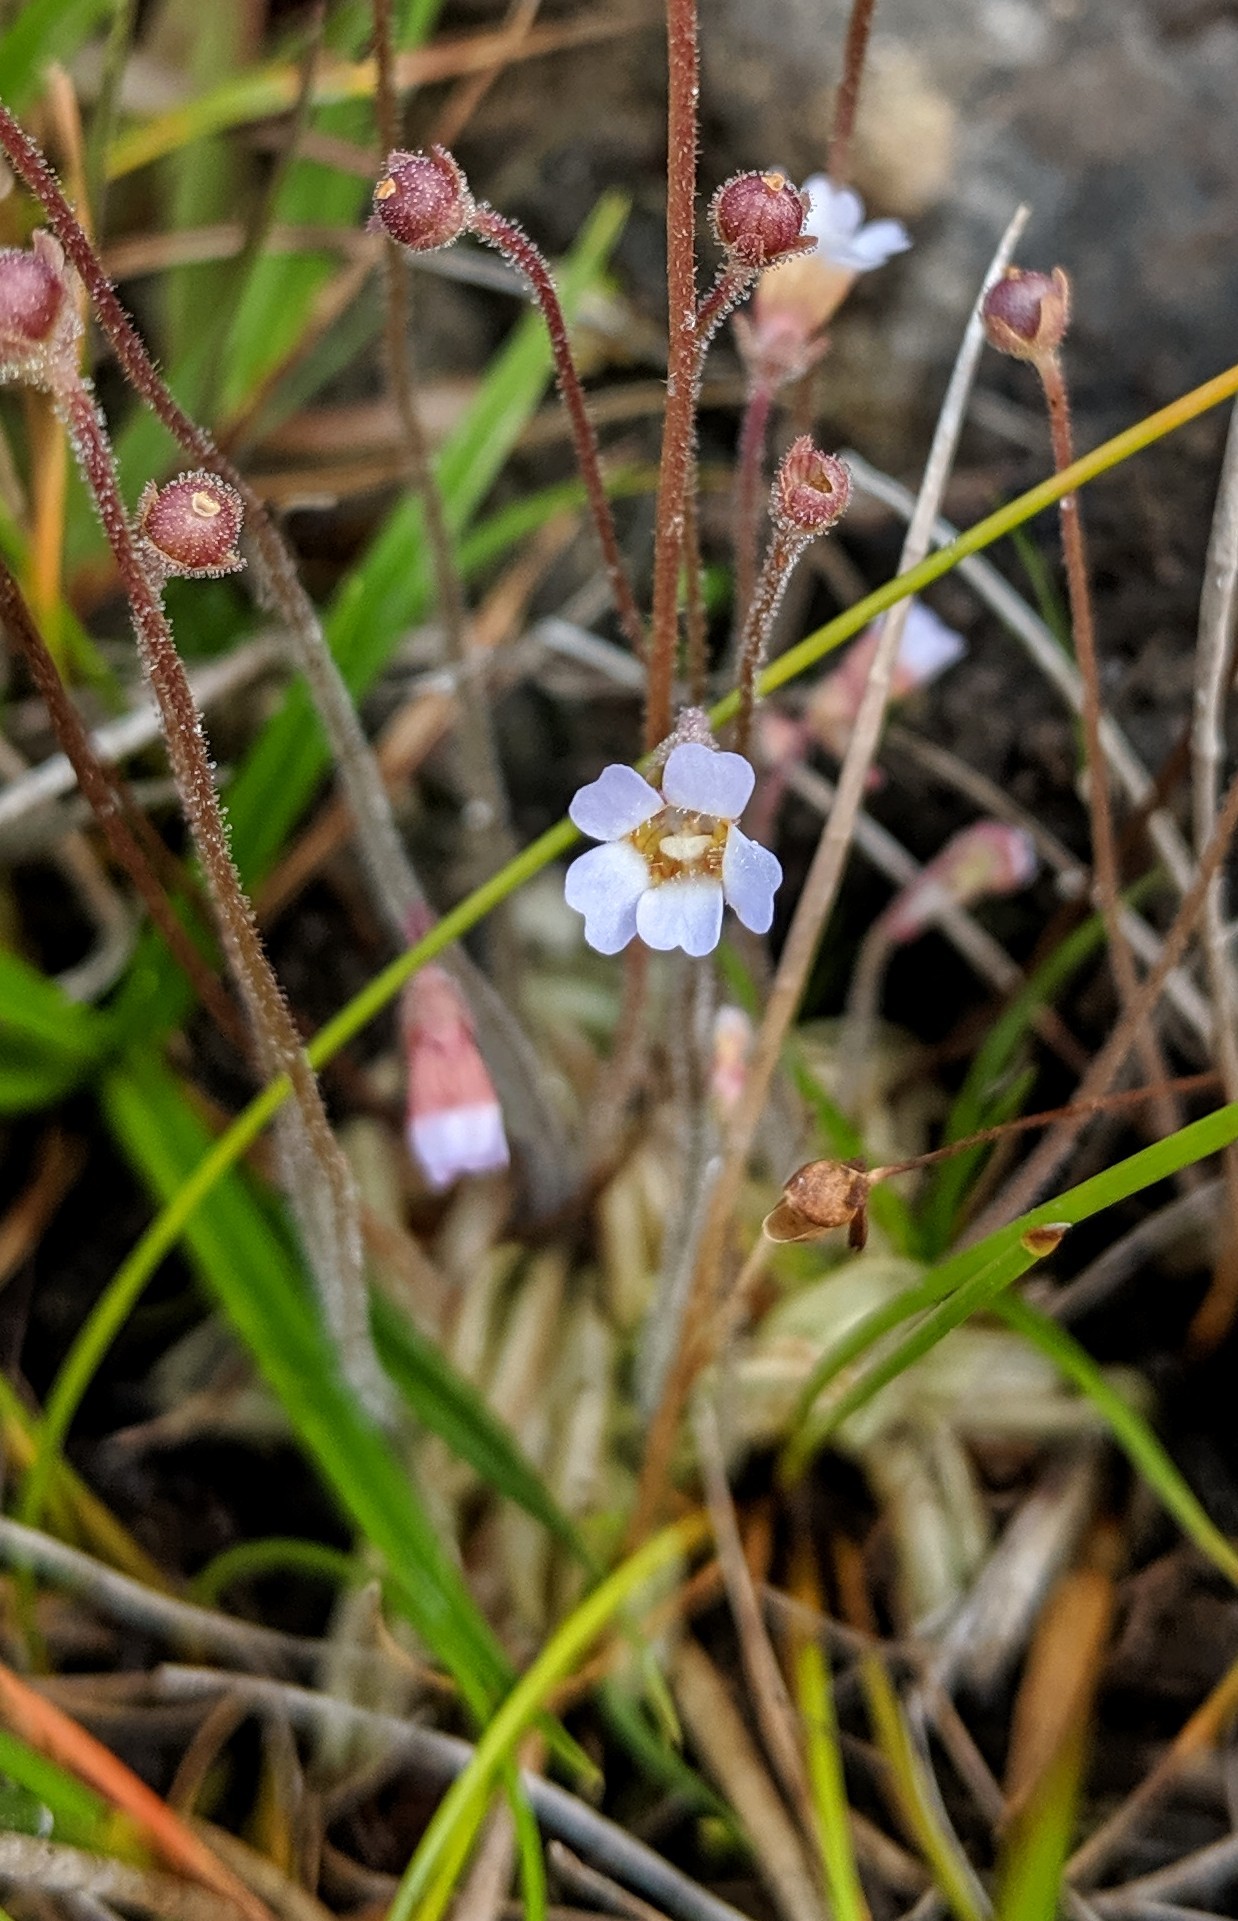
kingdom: Plantae
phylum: Tracheophyta
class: Magnoliopsida
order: Lamiales
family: Lentibulariaceae
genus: Pinguicula
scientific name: Pinguicula lusitanica
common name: Pale butterwort
